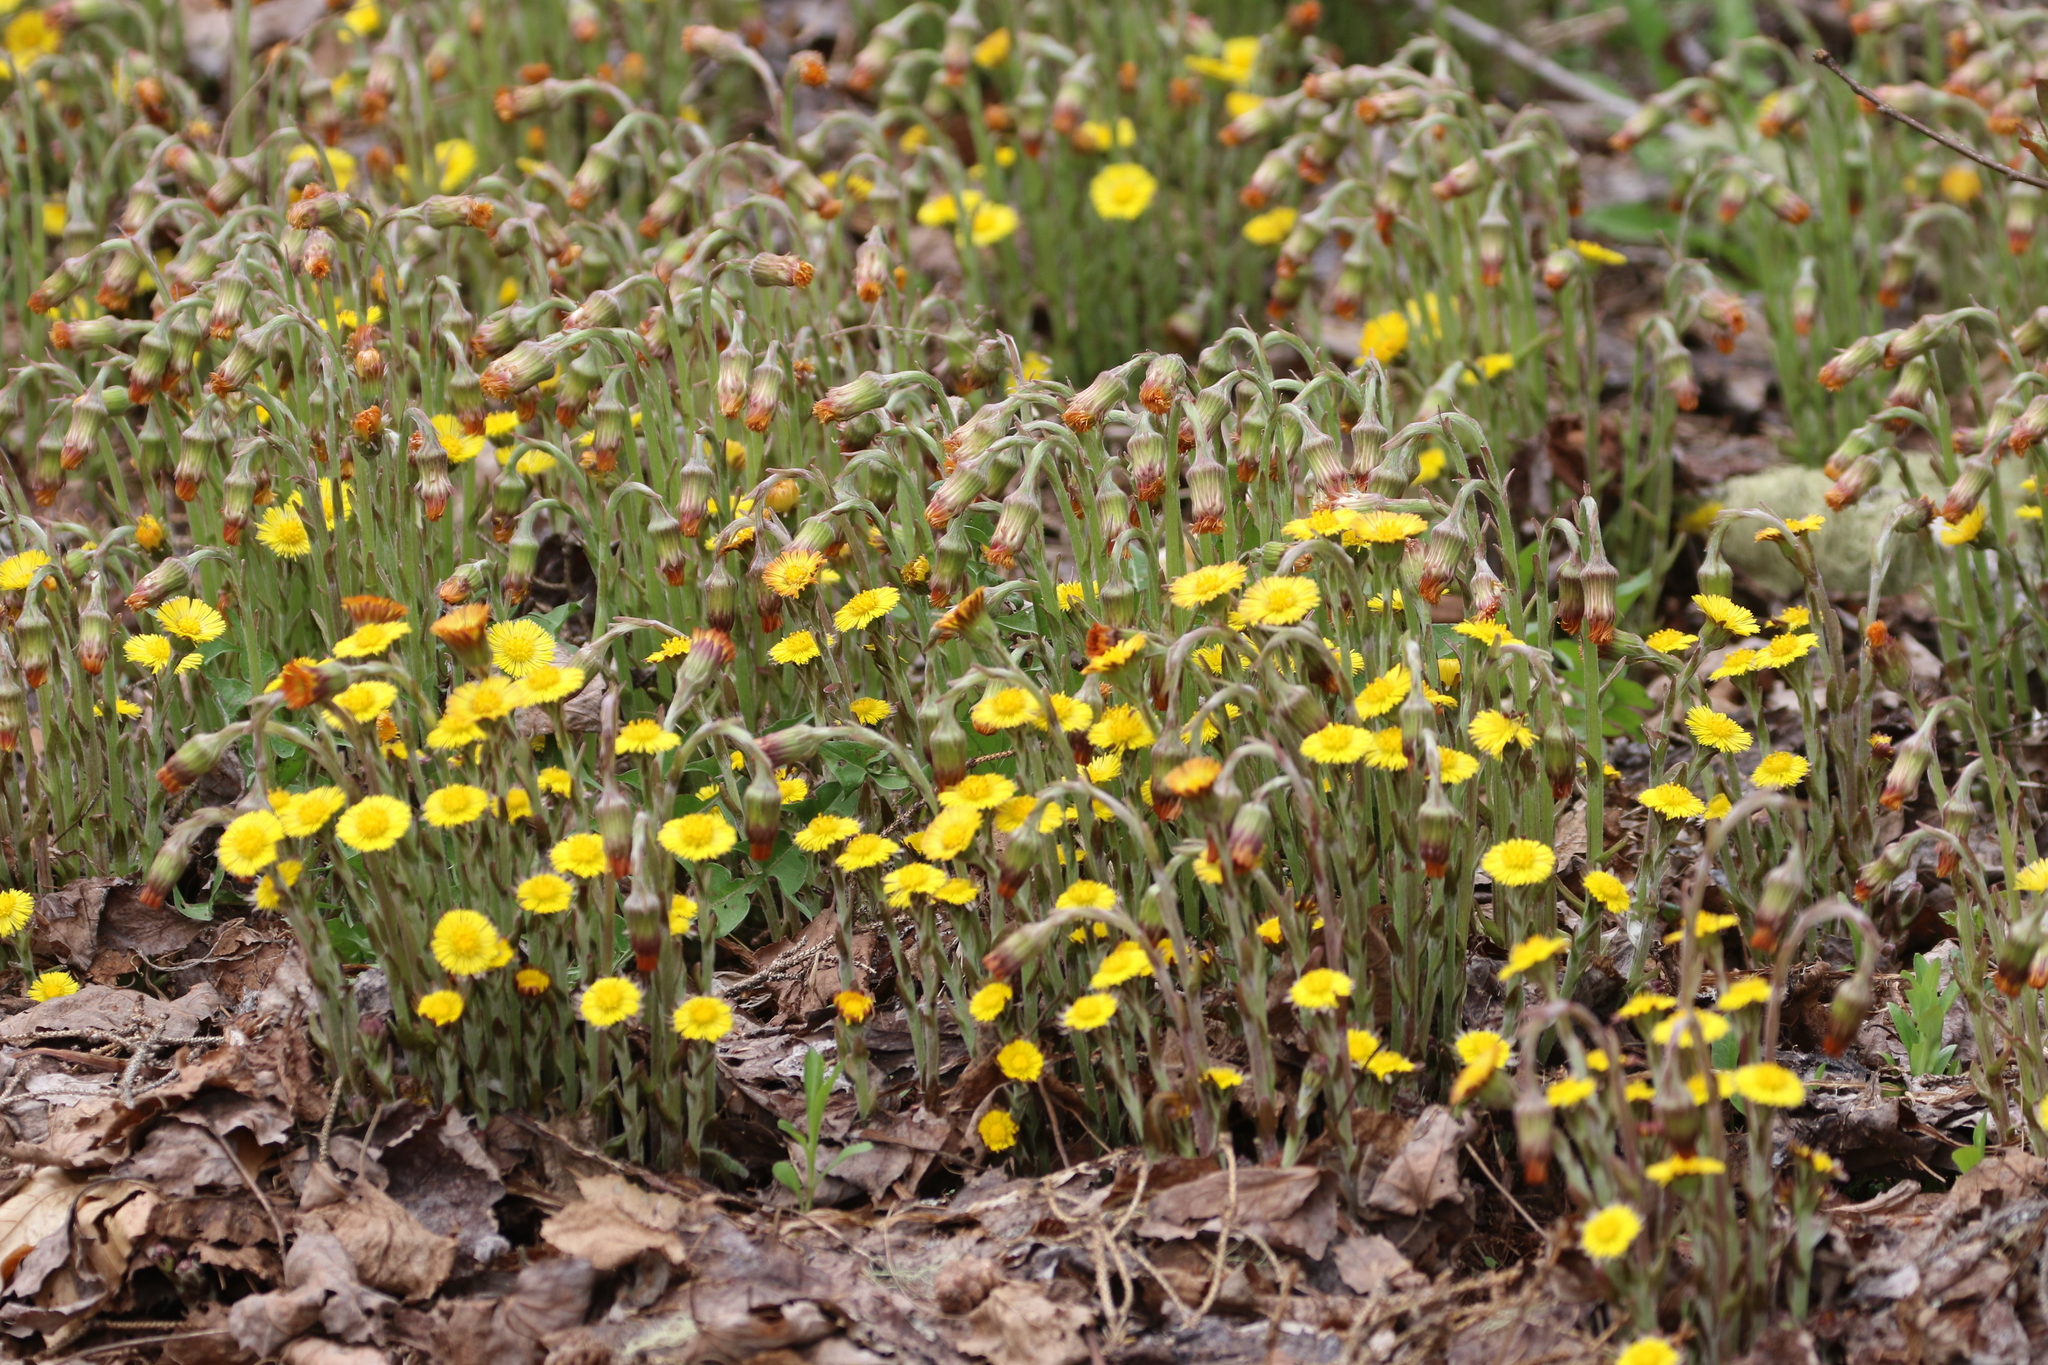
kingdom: Plantae
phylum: Tracheophyta
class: Magnoliopsida
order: Asterales
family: Asteraceae
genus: Tussilago
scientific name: Tussilago farfara
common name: Coltsfoot
